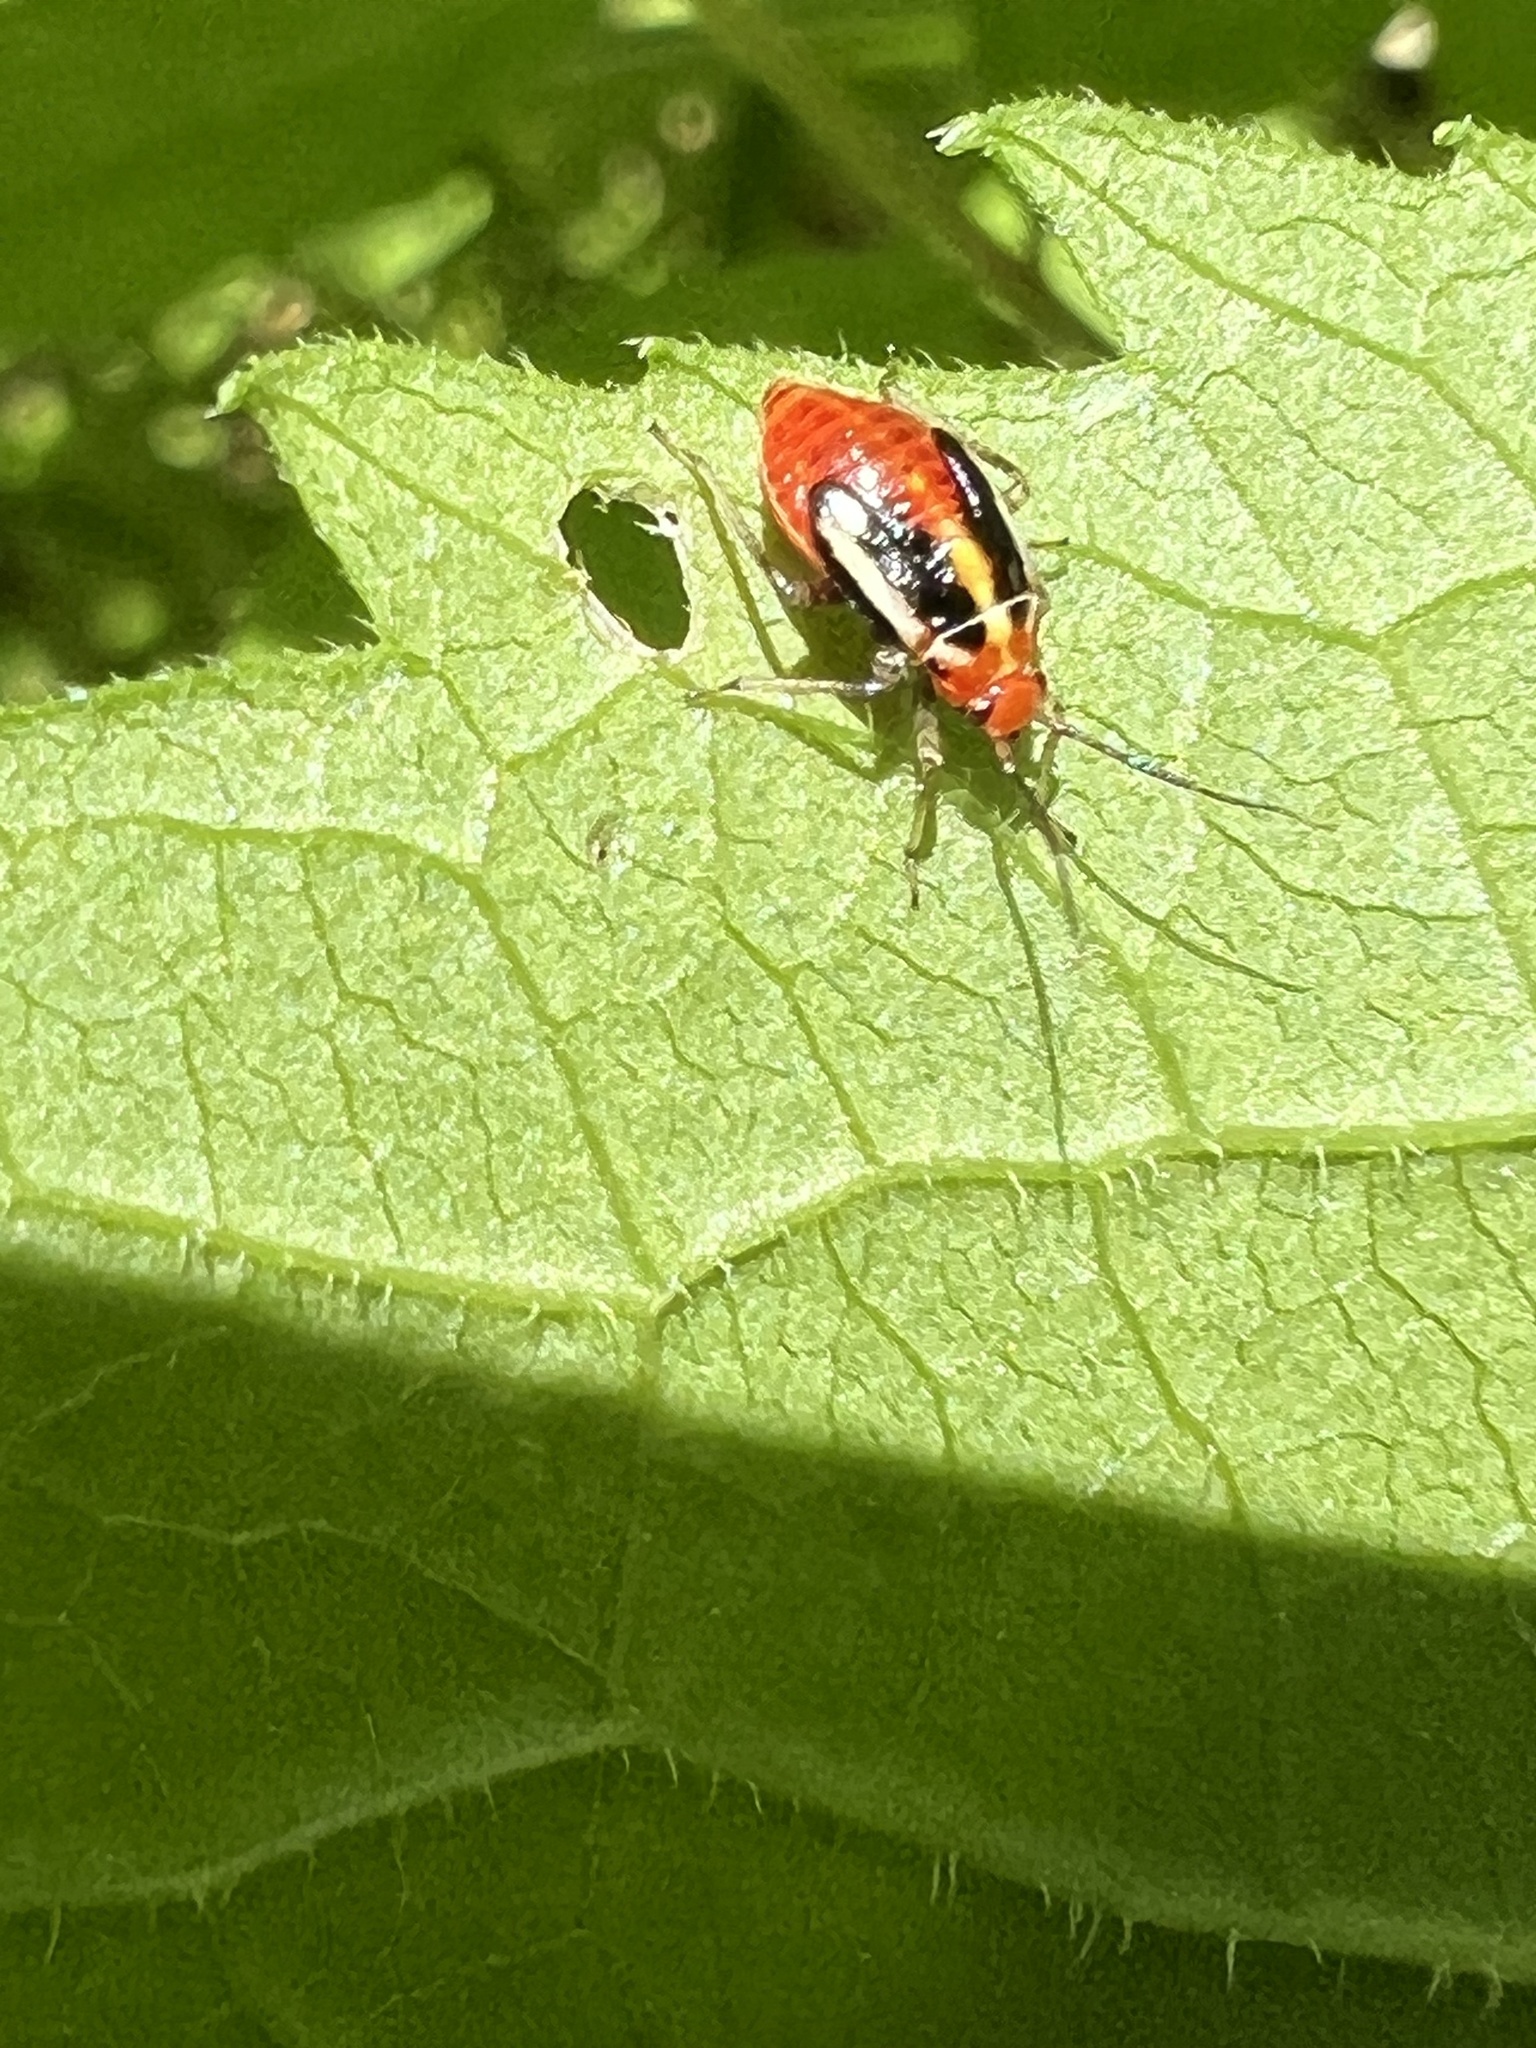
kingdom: Animalia
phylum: Arthropoda
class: Insecta
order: Hemiptera
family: Miridae
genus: Poecilocapsus
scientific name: Poecilocapsus lineatus
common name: Four-lined plant bug
